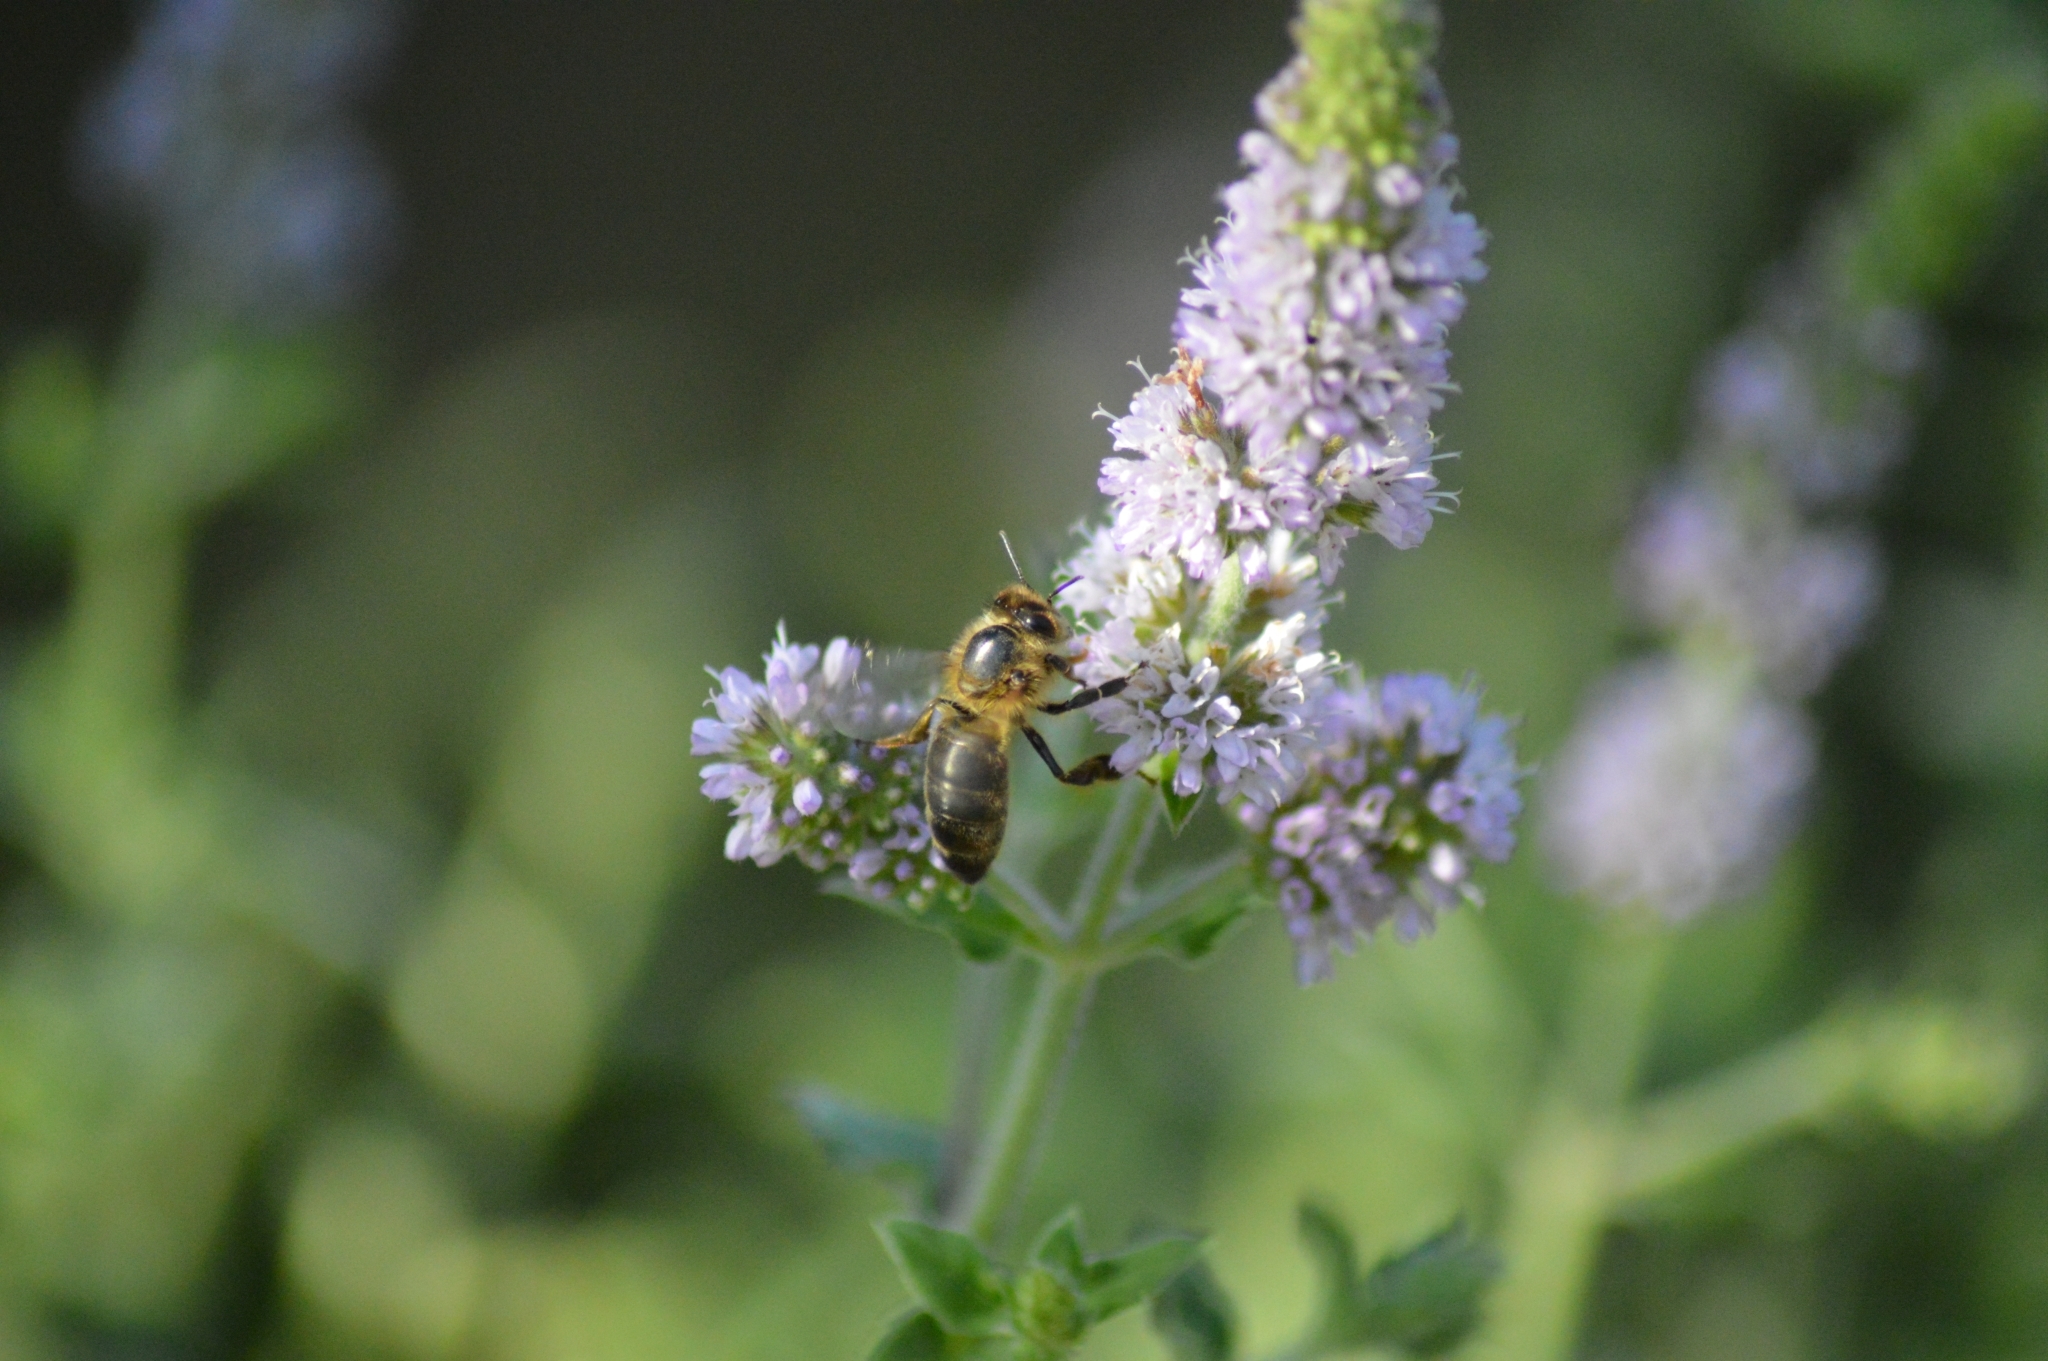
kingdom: Animalia
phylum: Arthropoda
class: Insecta
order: Hymenoptera
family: Apidae
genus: Apis
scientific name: Apis mellifera
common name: Honey bee
